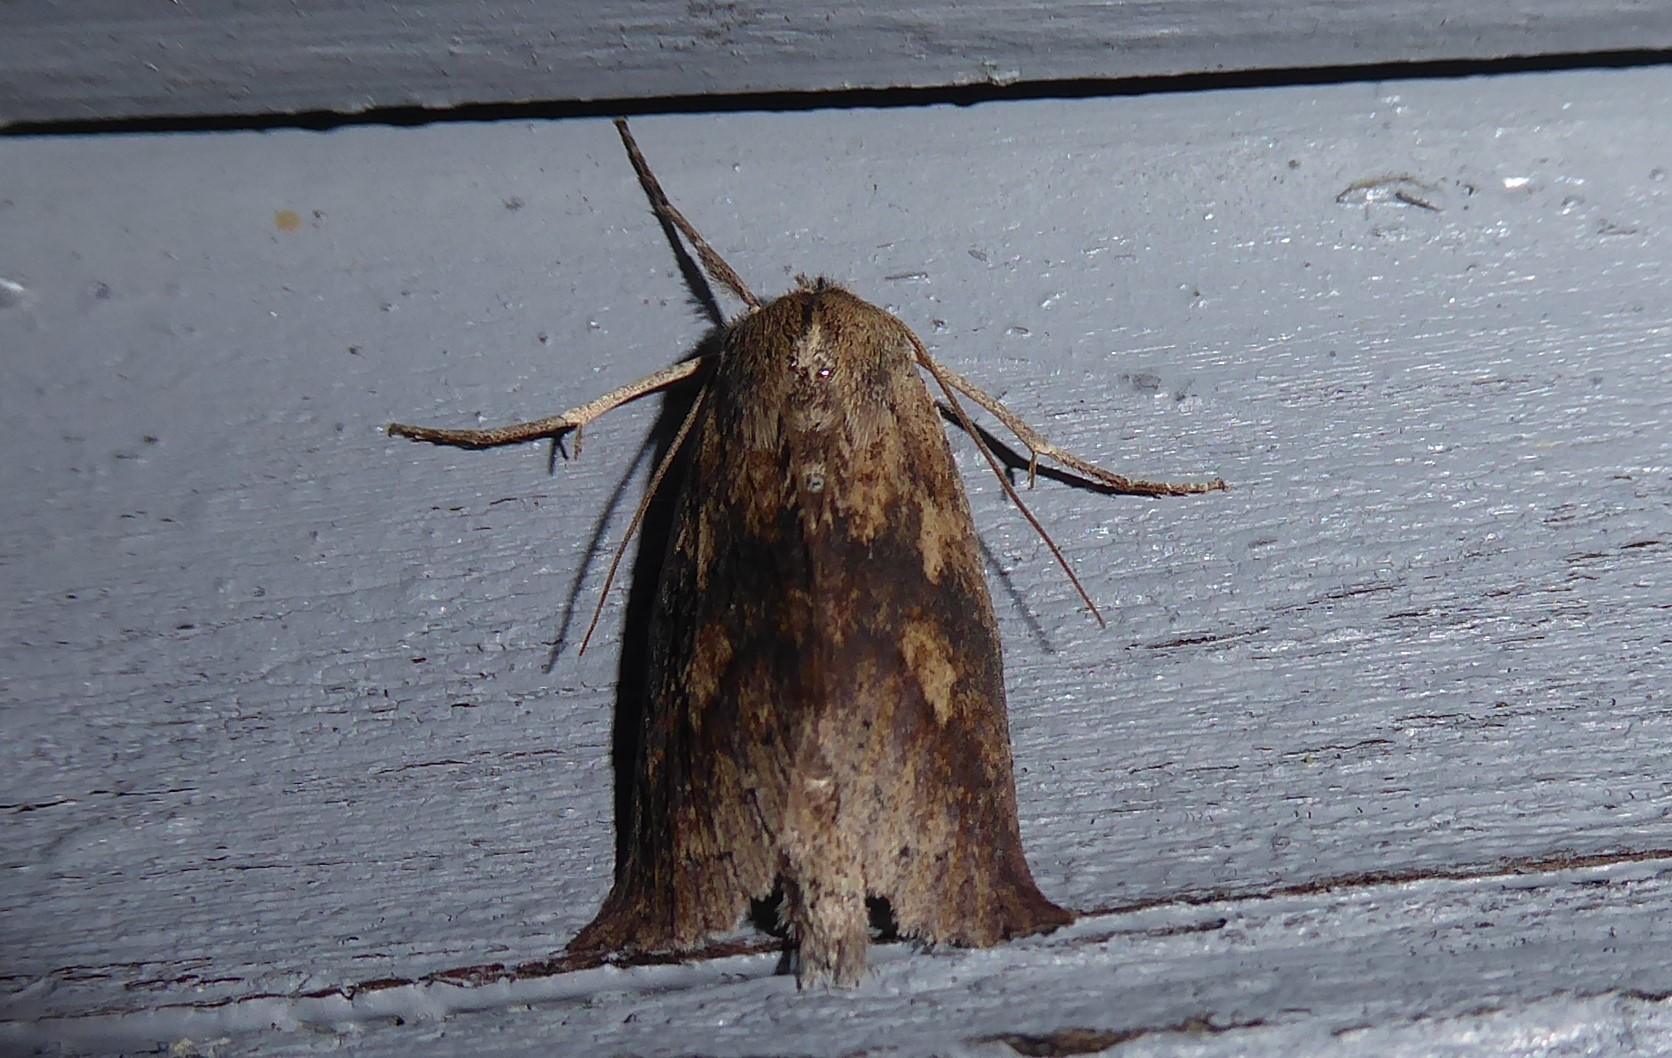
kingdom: Animalia
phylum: Arthropoda
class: Insecta
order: Lepidoptera
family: Geometridae
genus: Declana
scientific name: Declana leptomera
